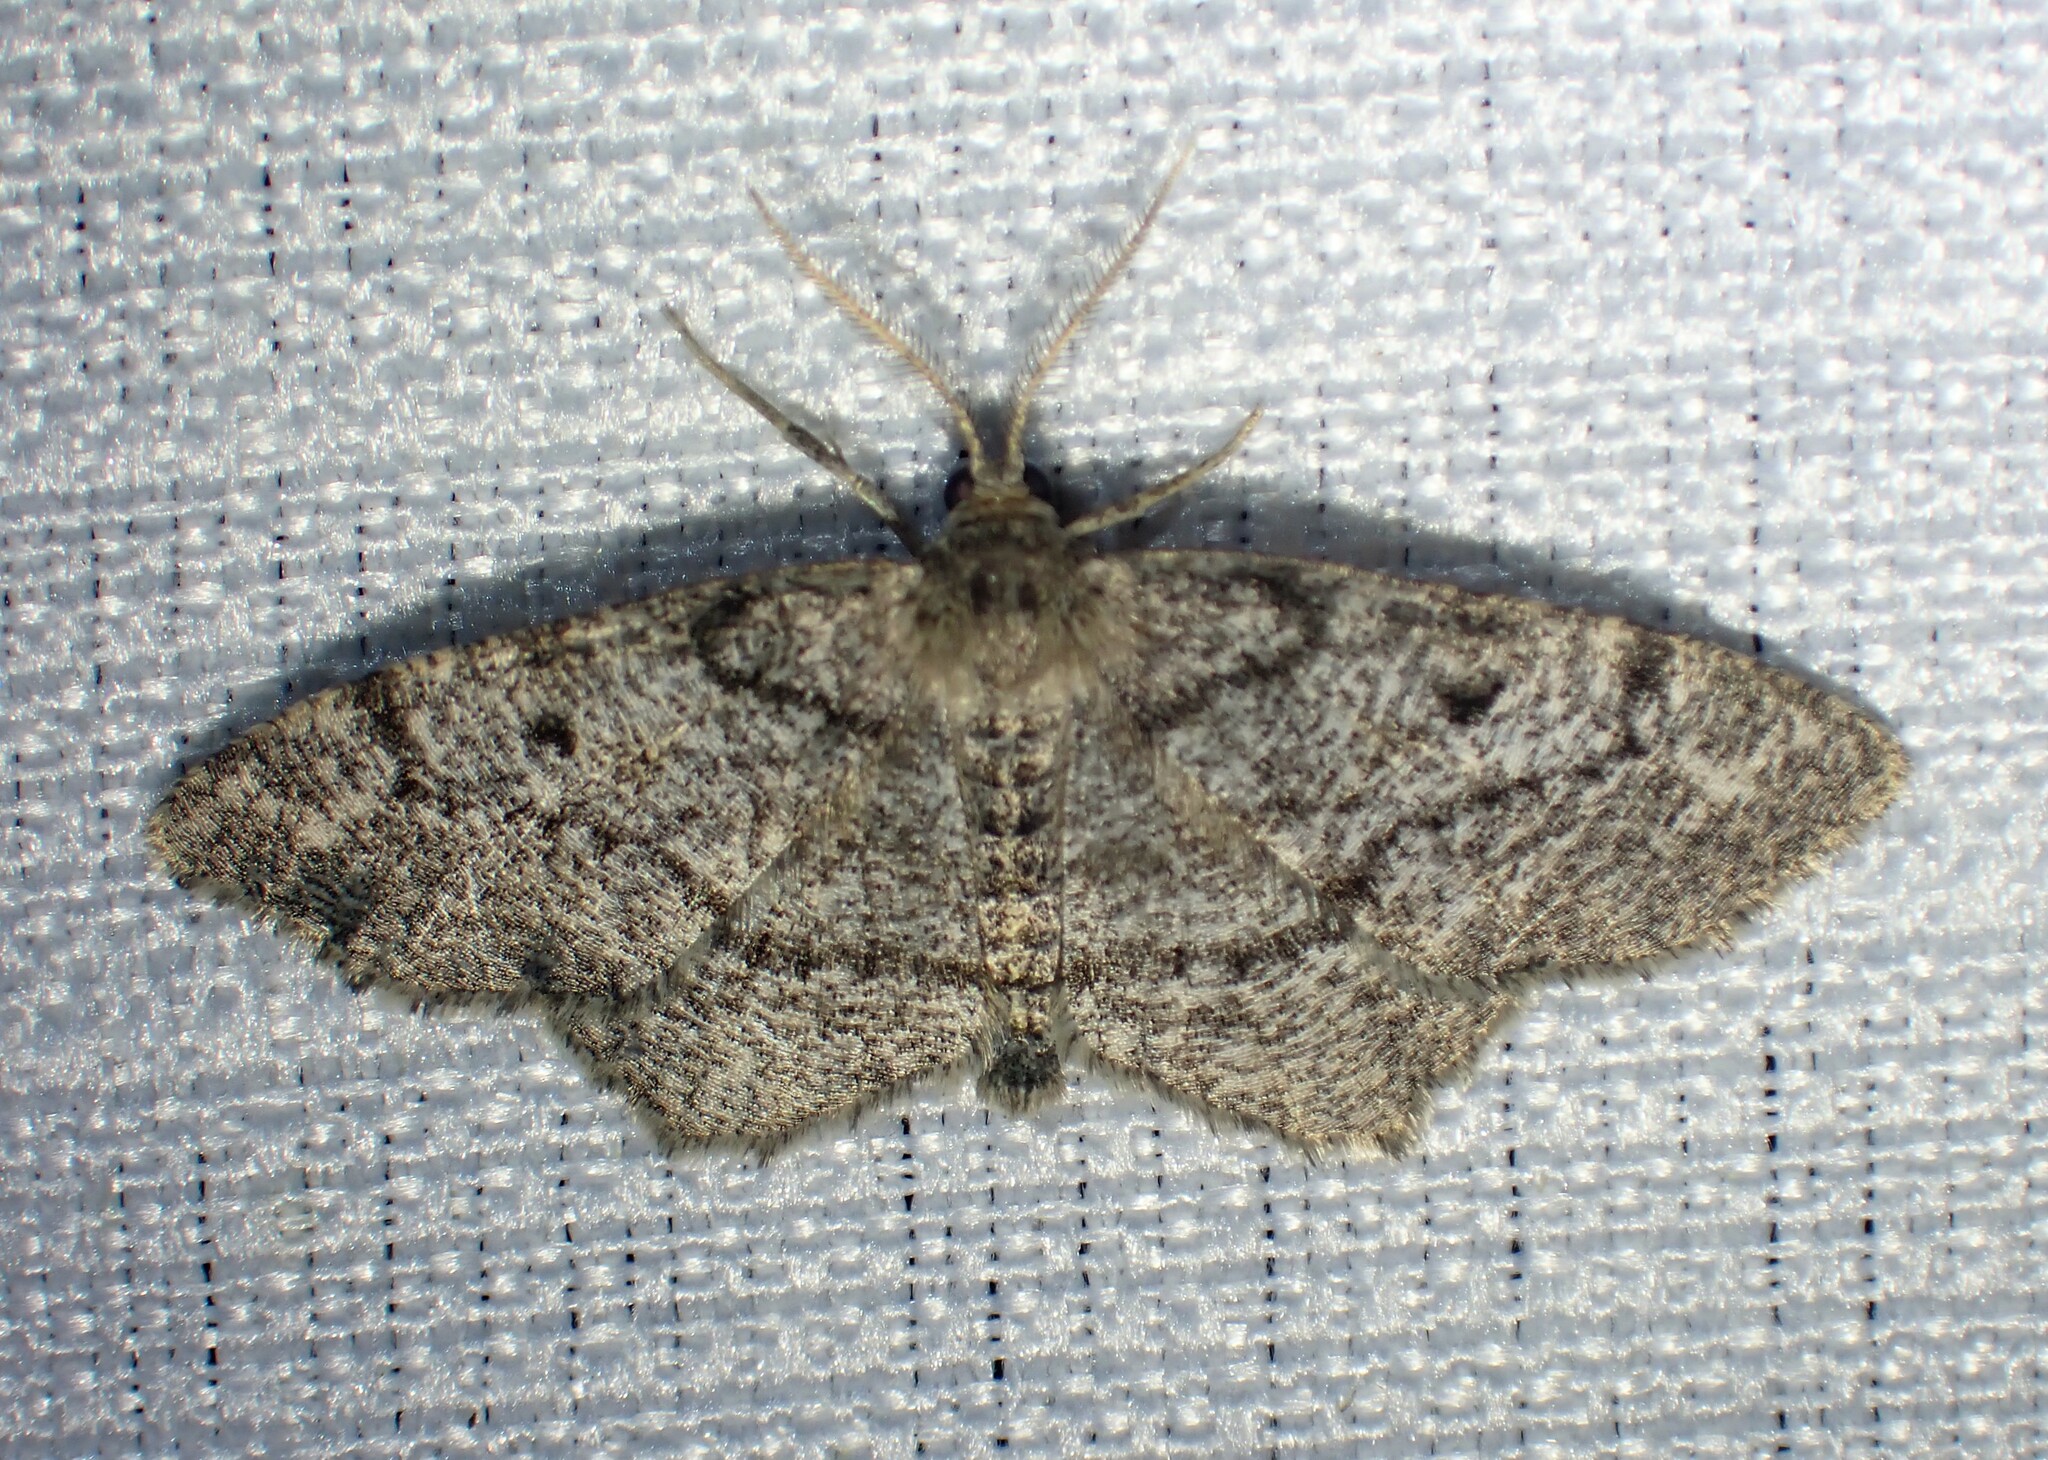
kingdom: Animalia
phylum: Arthropoda
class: Insecta
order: Lepidoptera
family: Geometridae
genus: Hypagyrtis
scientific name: Hypagyrtis piniata
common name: Pine measuringworm
